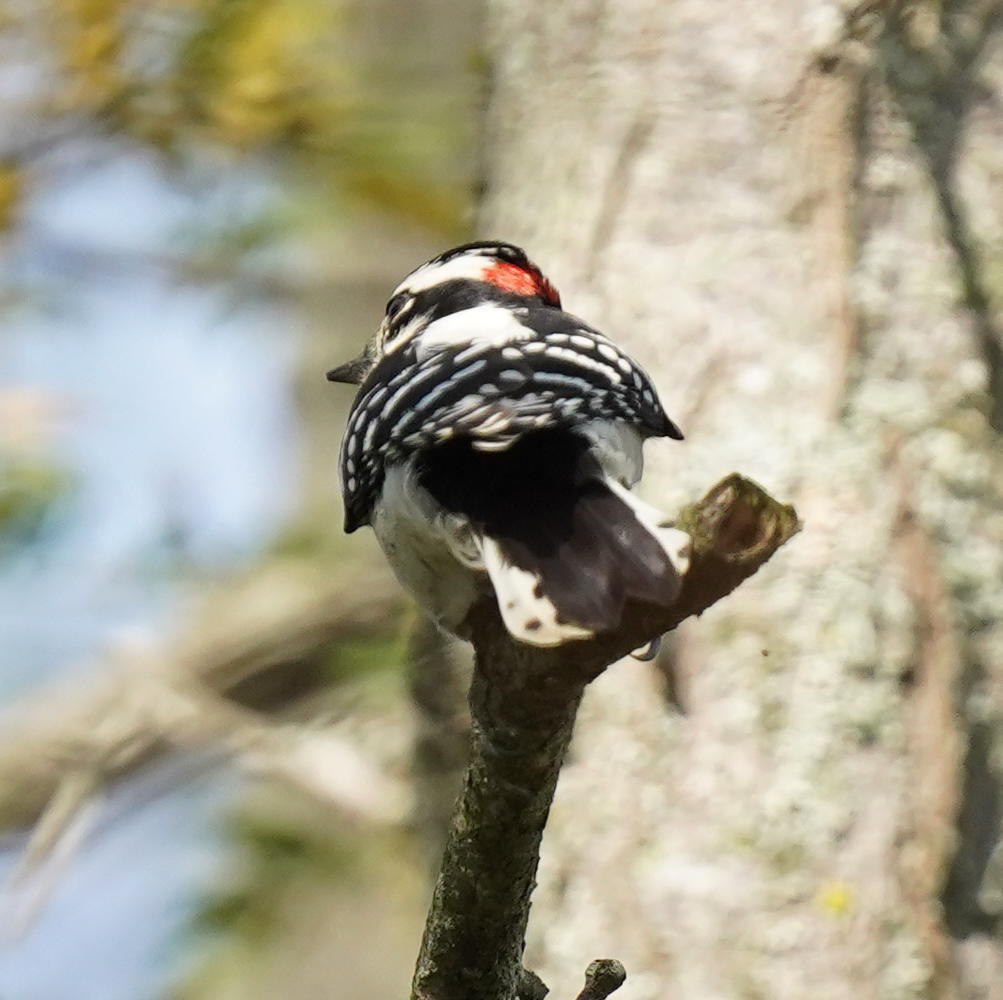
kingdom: Animalia
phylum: Chordata
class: Aves
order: Piciformes
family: Picidae
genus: Dryobates
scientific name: Dryobates pubescens
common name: Downy woodpecker
